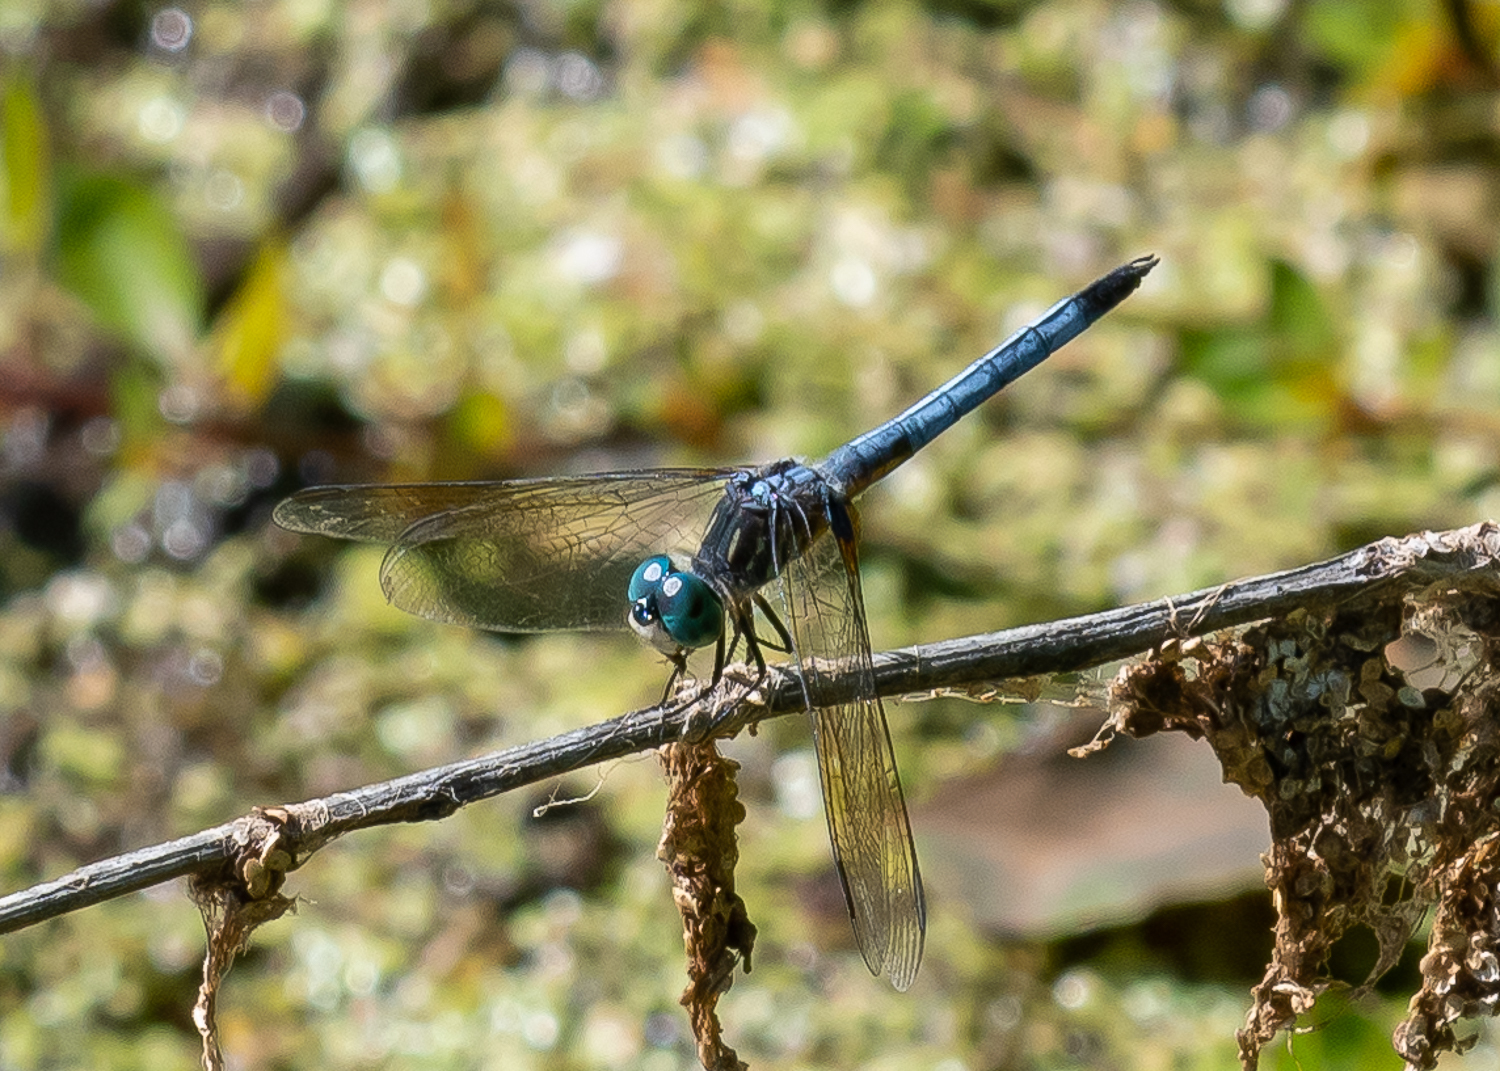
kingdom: Animalia
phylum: Arthropoda
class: Insecta
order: Odonata
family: Libellulidae
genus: Pachydiplax
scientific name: Pachydiplax longipennis
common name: Blue dasher
